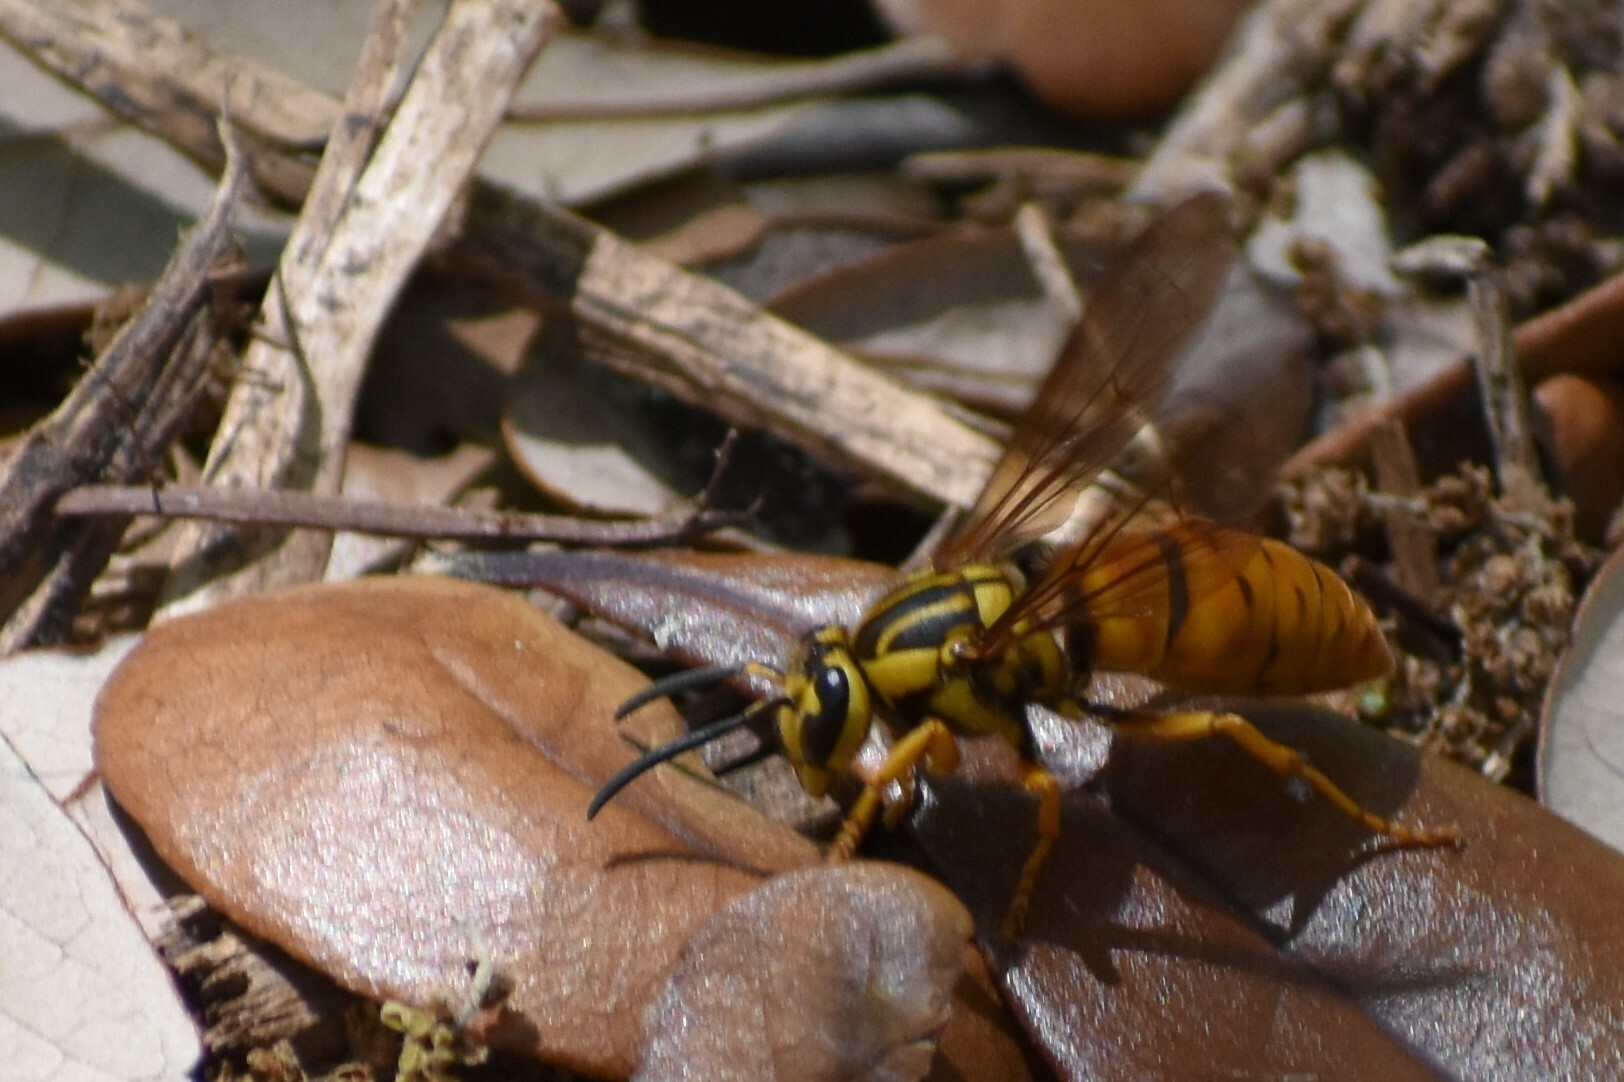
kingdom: Animalia
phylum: Arthropoda
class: Insecta
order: Hymenoptera
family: Vespidae
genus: Vespula
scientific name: Vespula squamosa
